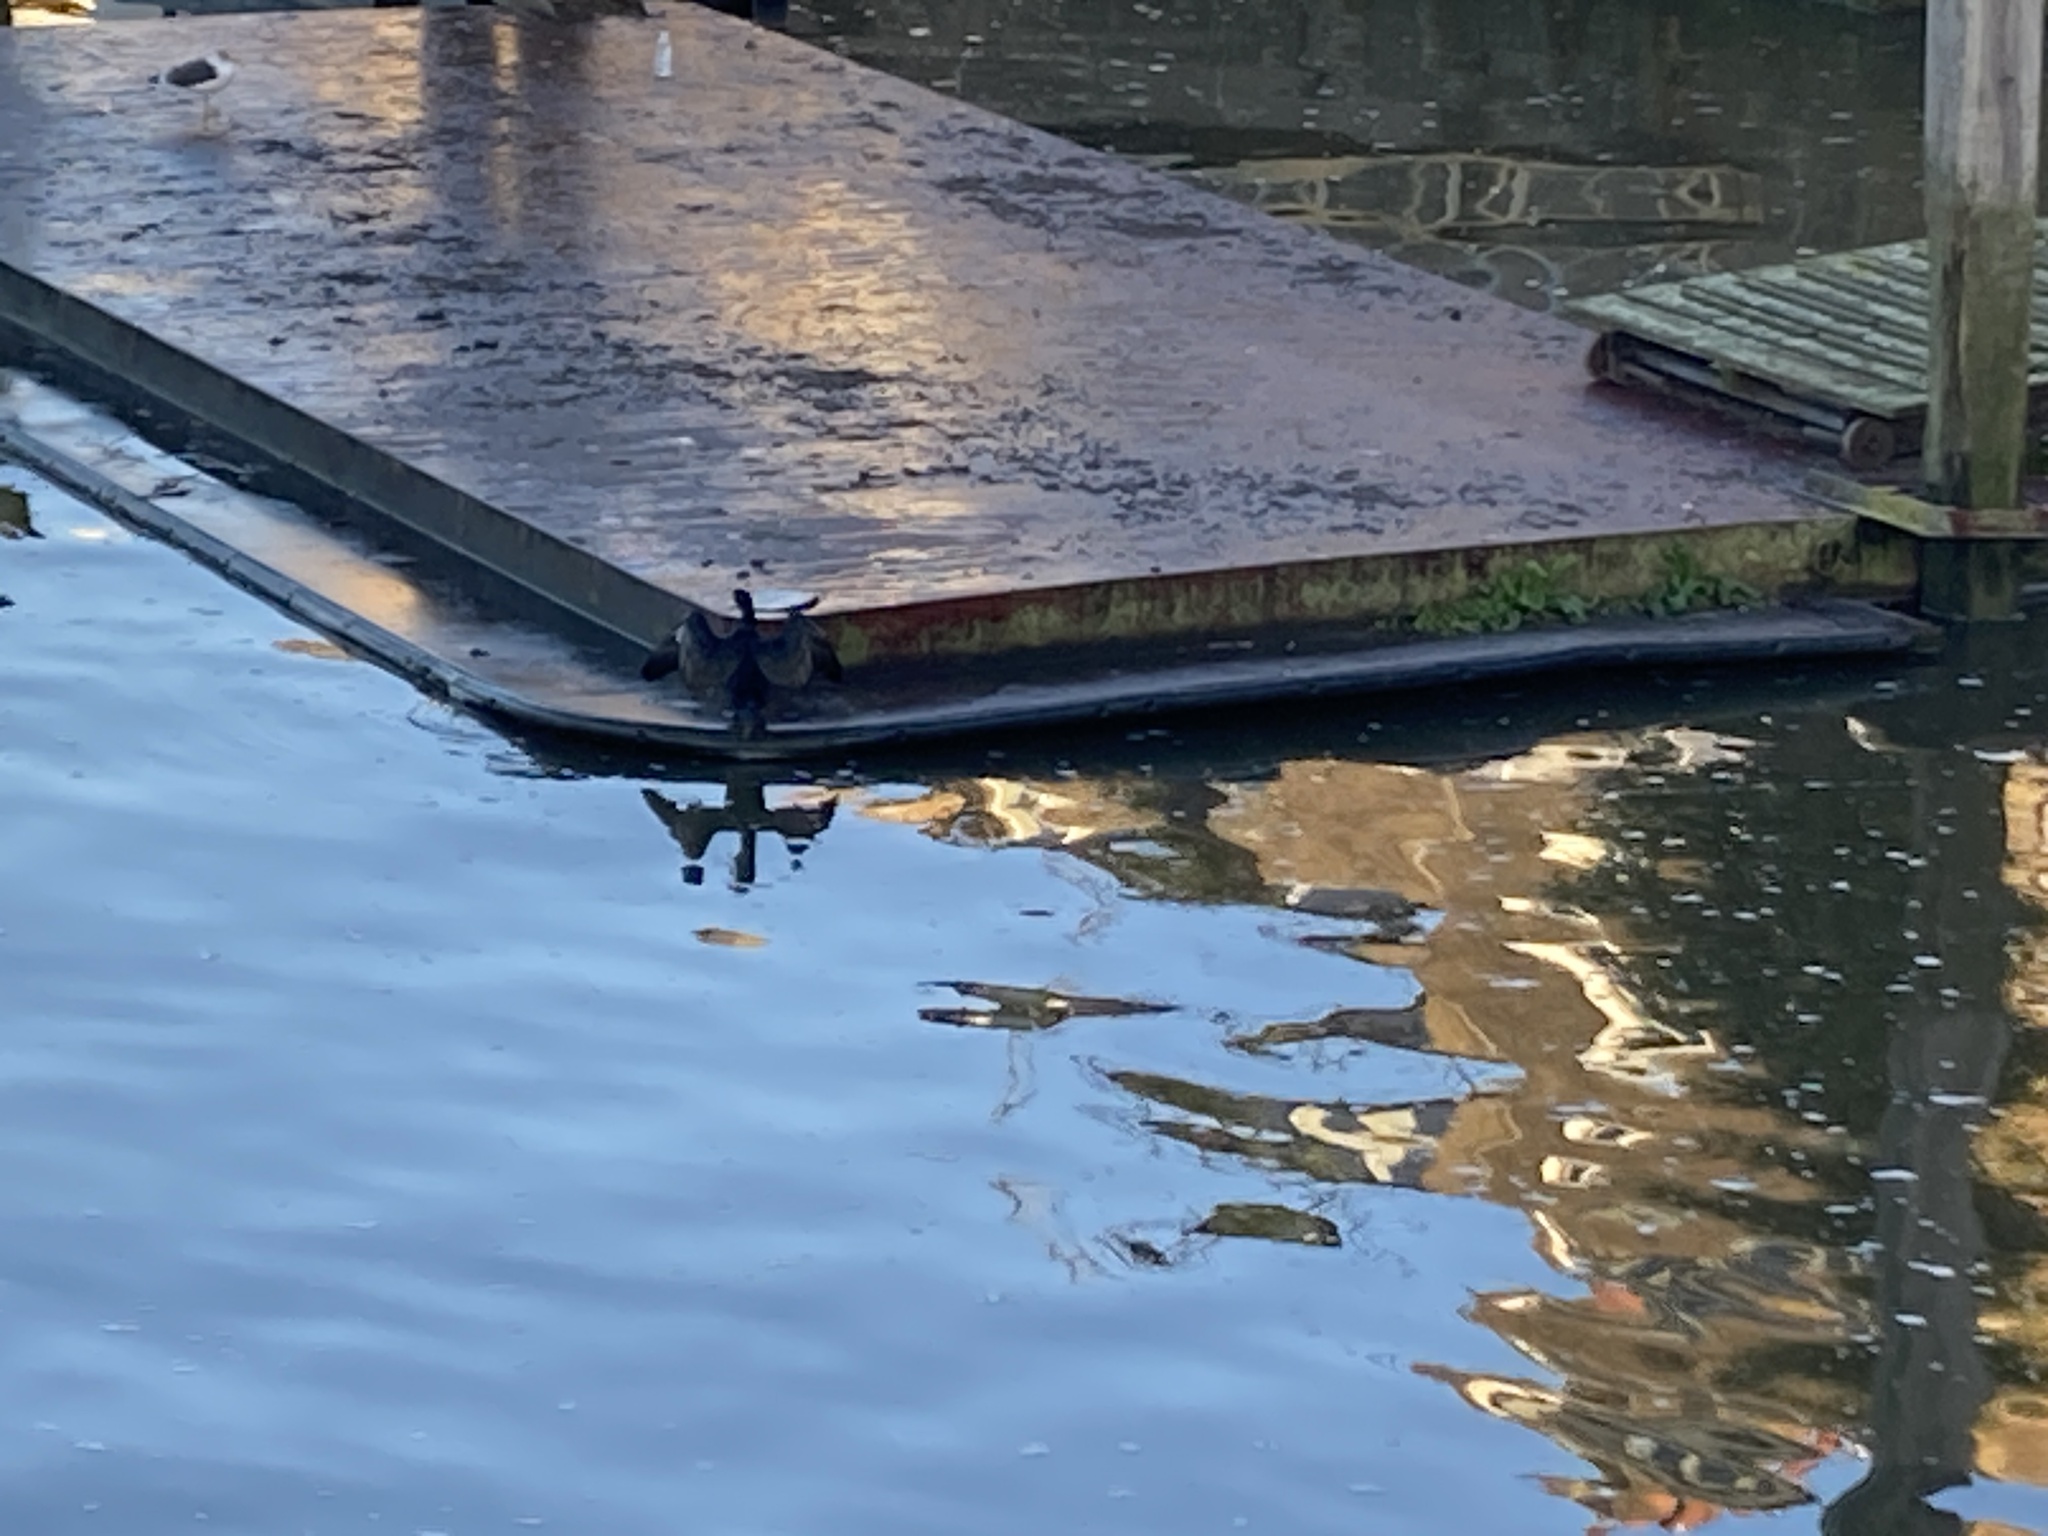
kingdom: Animalia
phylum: Chordata
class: Aves
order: Suliformes
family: Phalacrocoracidae
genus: Phalacrocorax
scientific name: Phalacrocorax carbo
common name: Great cormorant
